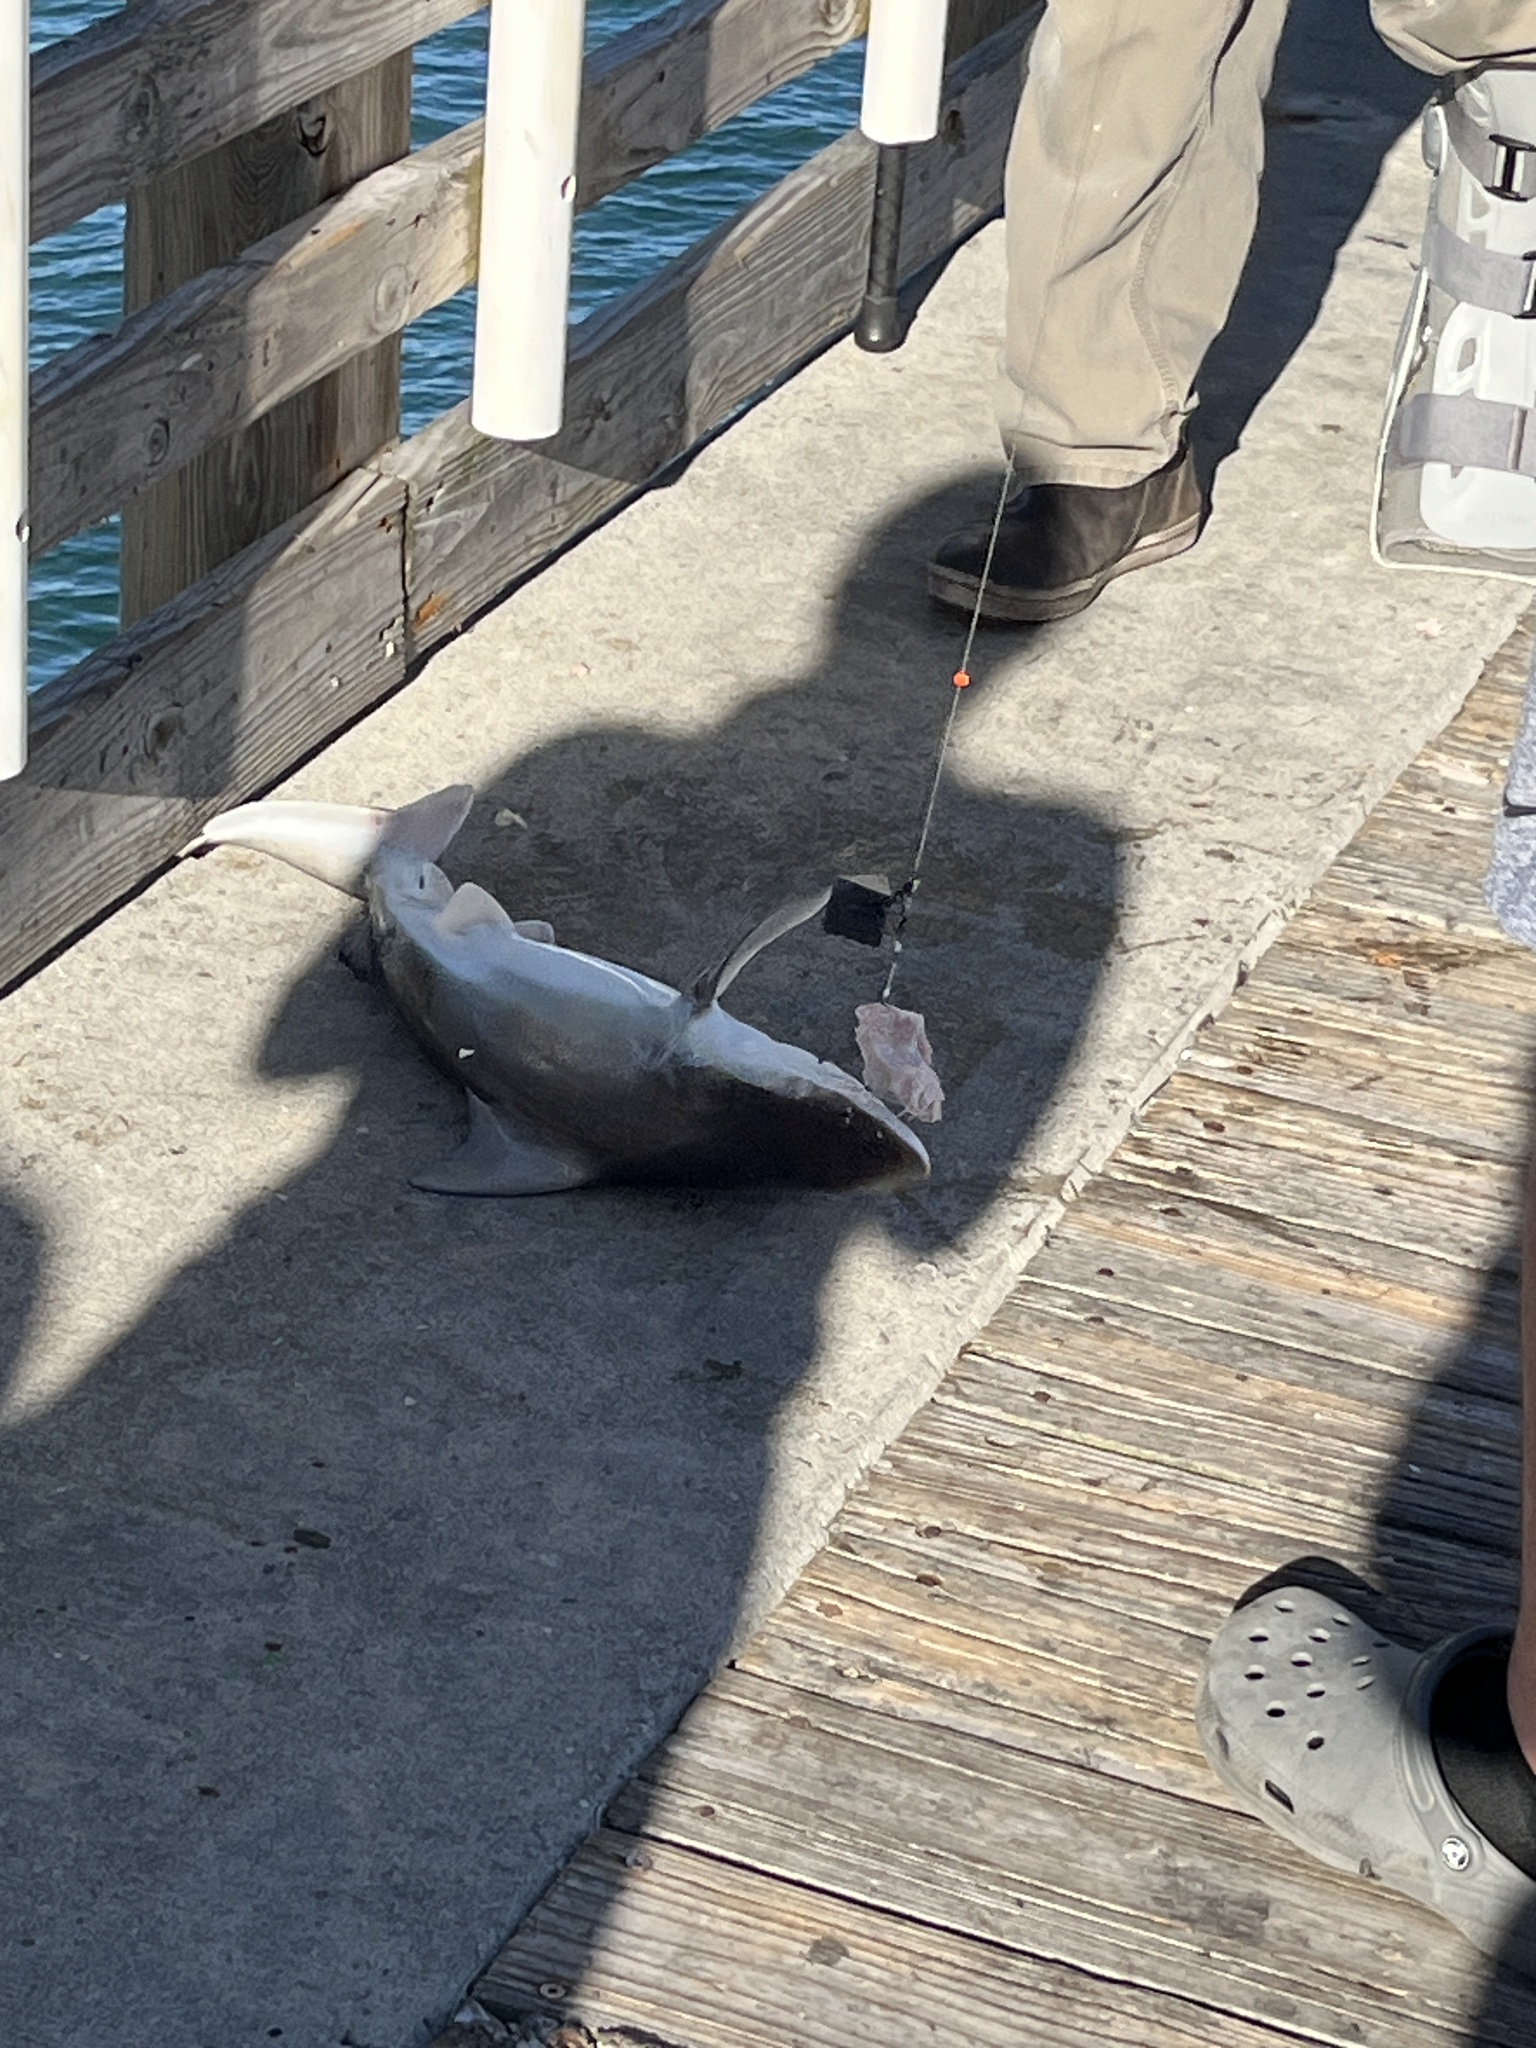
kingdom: Animalia
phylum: Chordata
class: Elasmobranchii
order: Carcharhiniformes
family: Carcharhinidae
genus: Carcharhinus
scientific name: Carcharhinus plumbeus
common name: Sandbar shark
